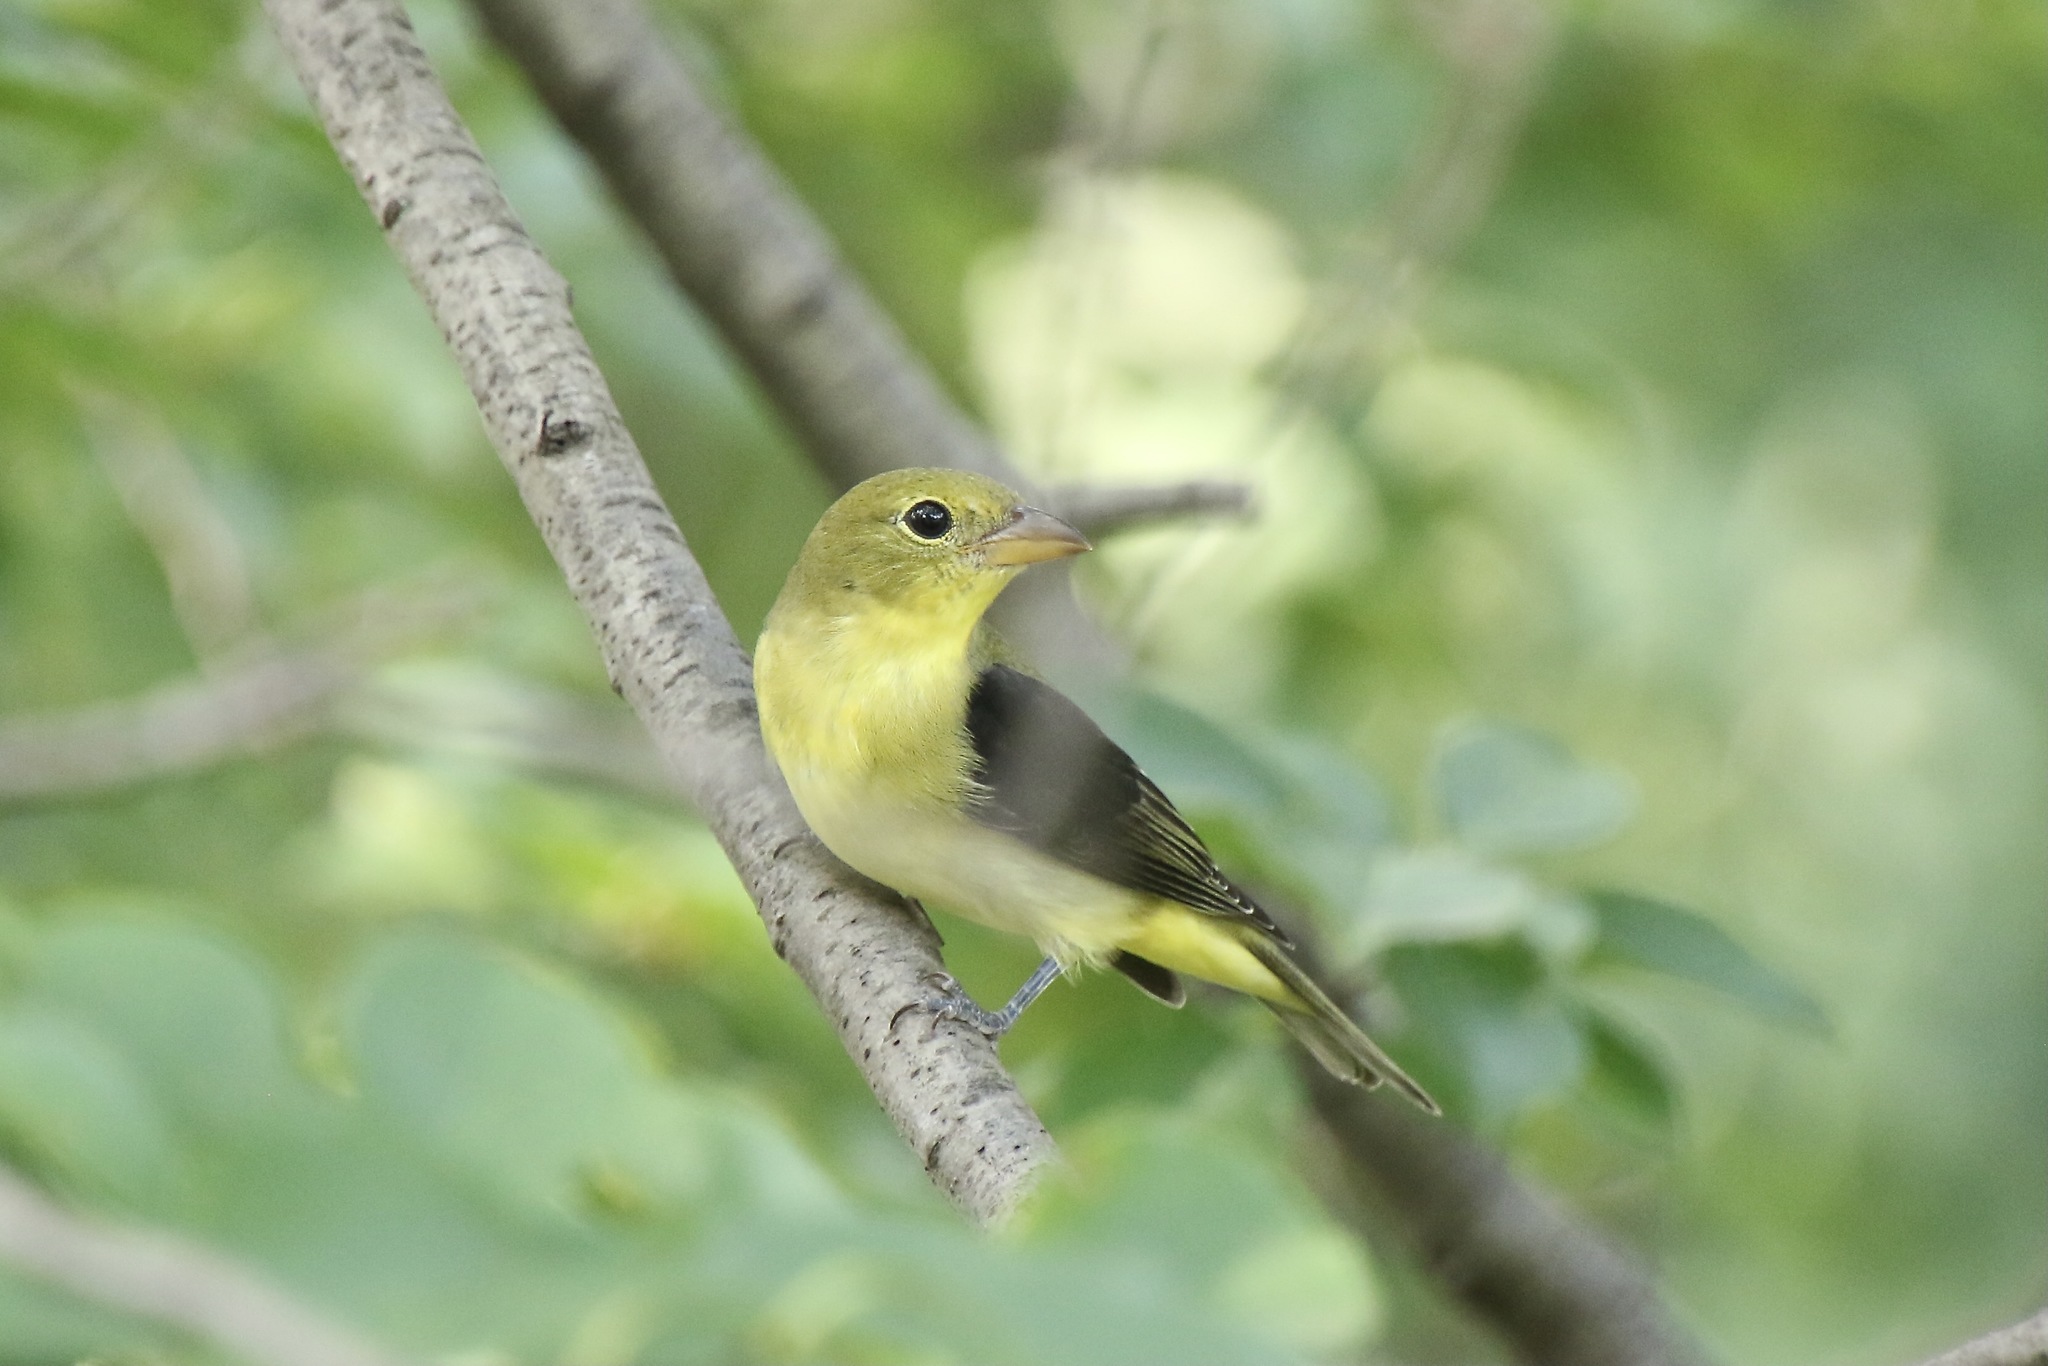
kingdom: Animalia
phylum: Chordata
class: Aves
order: Passeriformes
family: Cardinalidae
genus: Piranga
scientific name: Piranga olivacea
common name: Scarlet tanager
